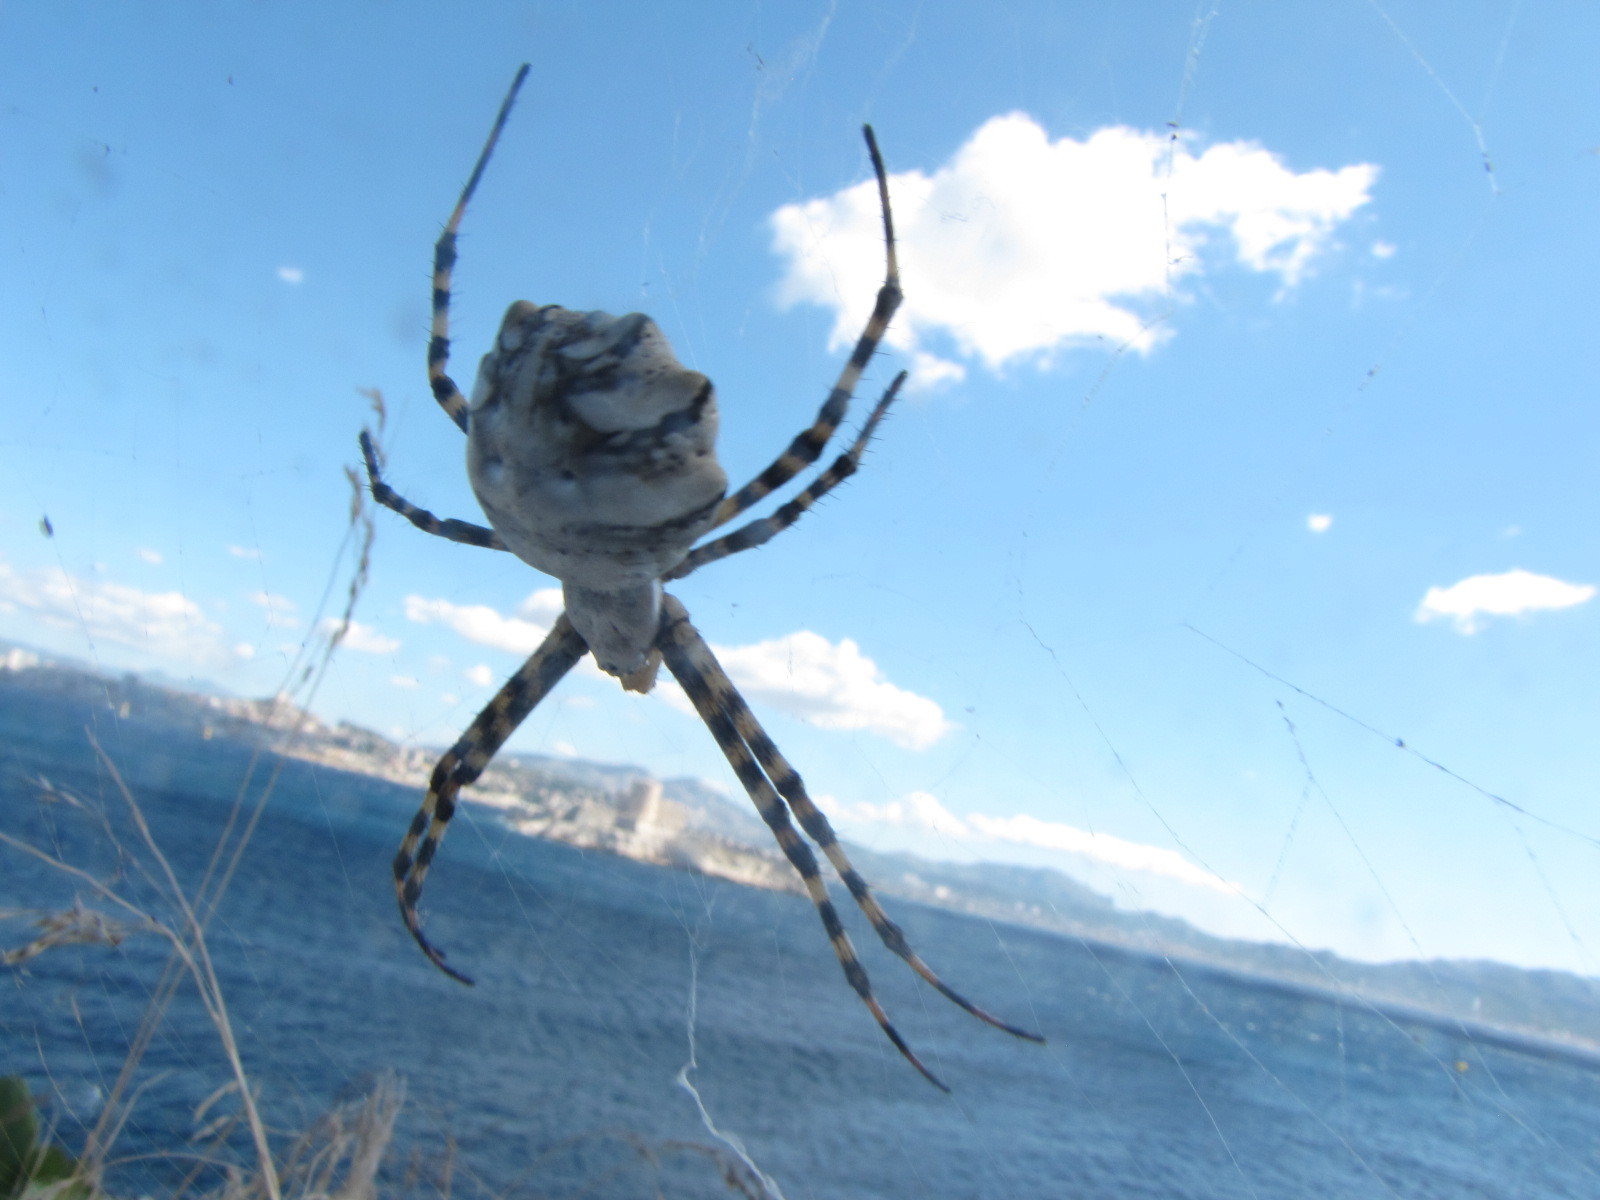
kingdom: Animalia
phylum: Arthropoda
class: Arachnida
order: Araneae
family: Araneidae
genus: Argiope
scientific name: Argiope lobata
